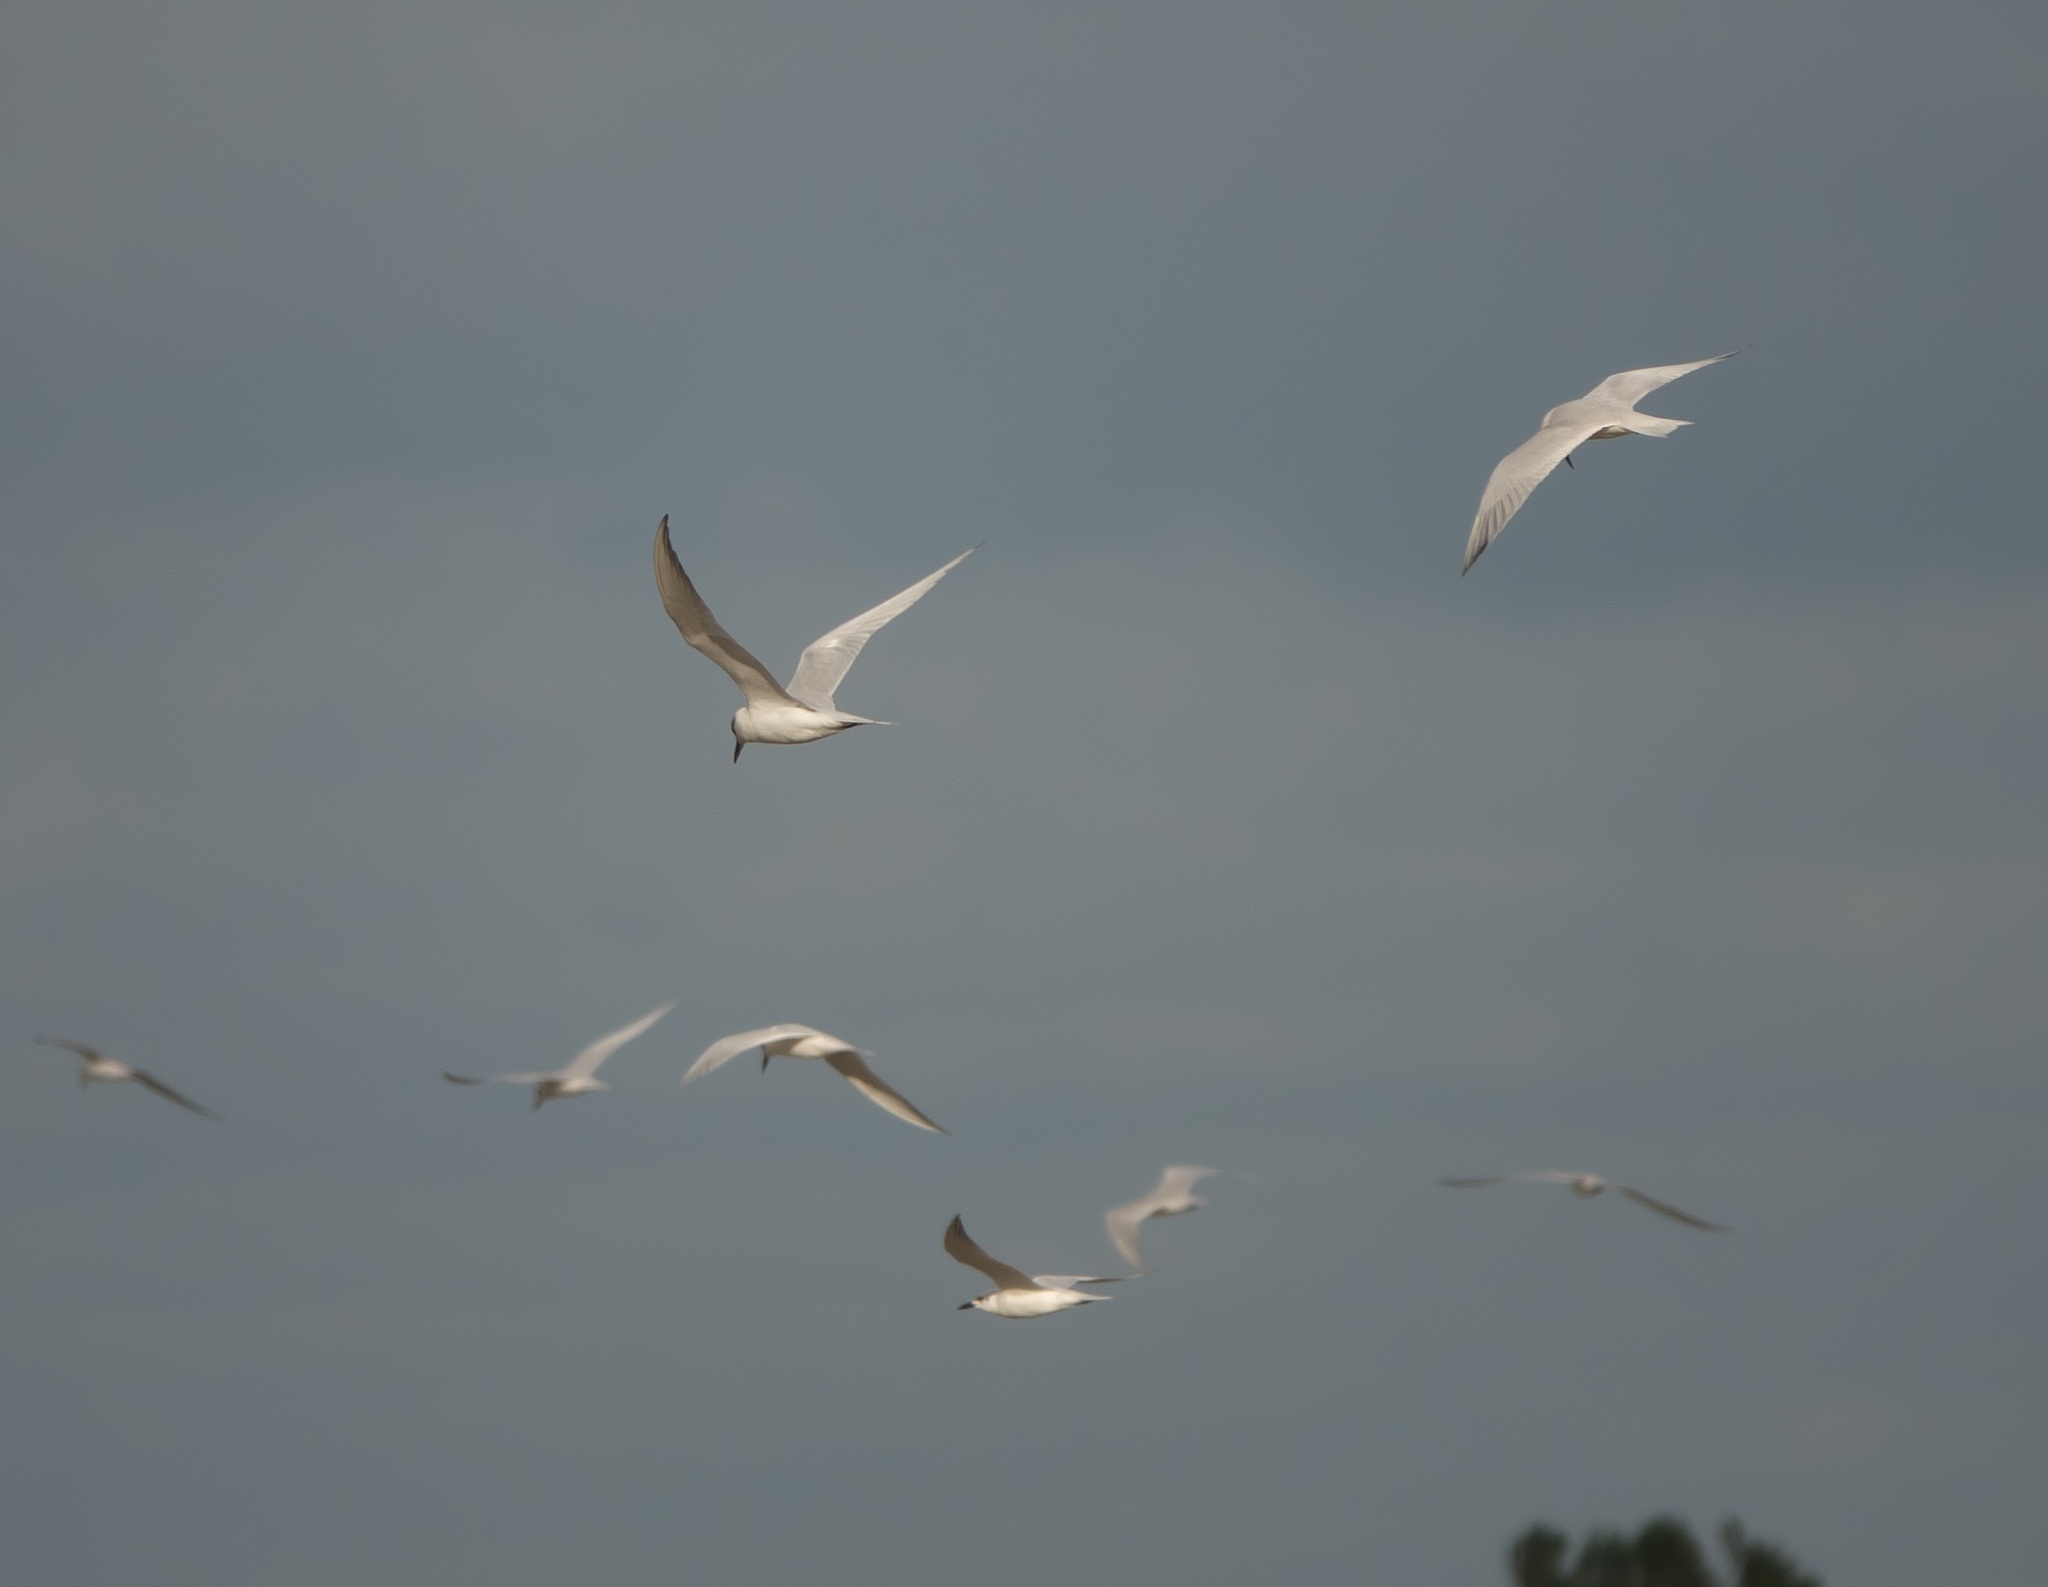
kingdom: Animalia
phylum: Chordata
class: Aves
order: Charadriiformes
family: Laridae
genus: Gelochelidon
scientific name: Gelochelidon nilotica
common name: Gull-billed tern
